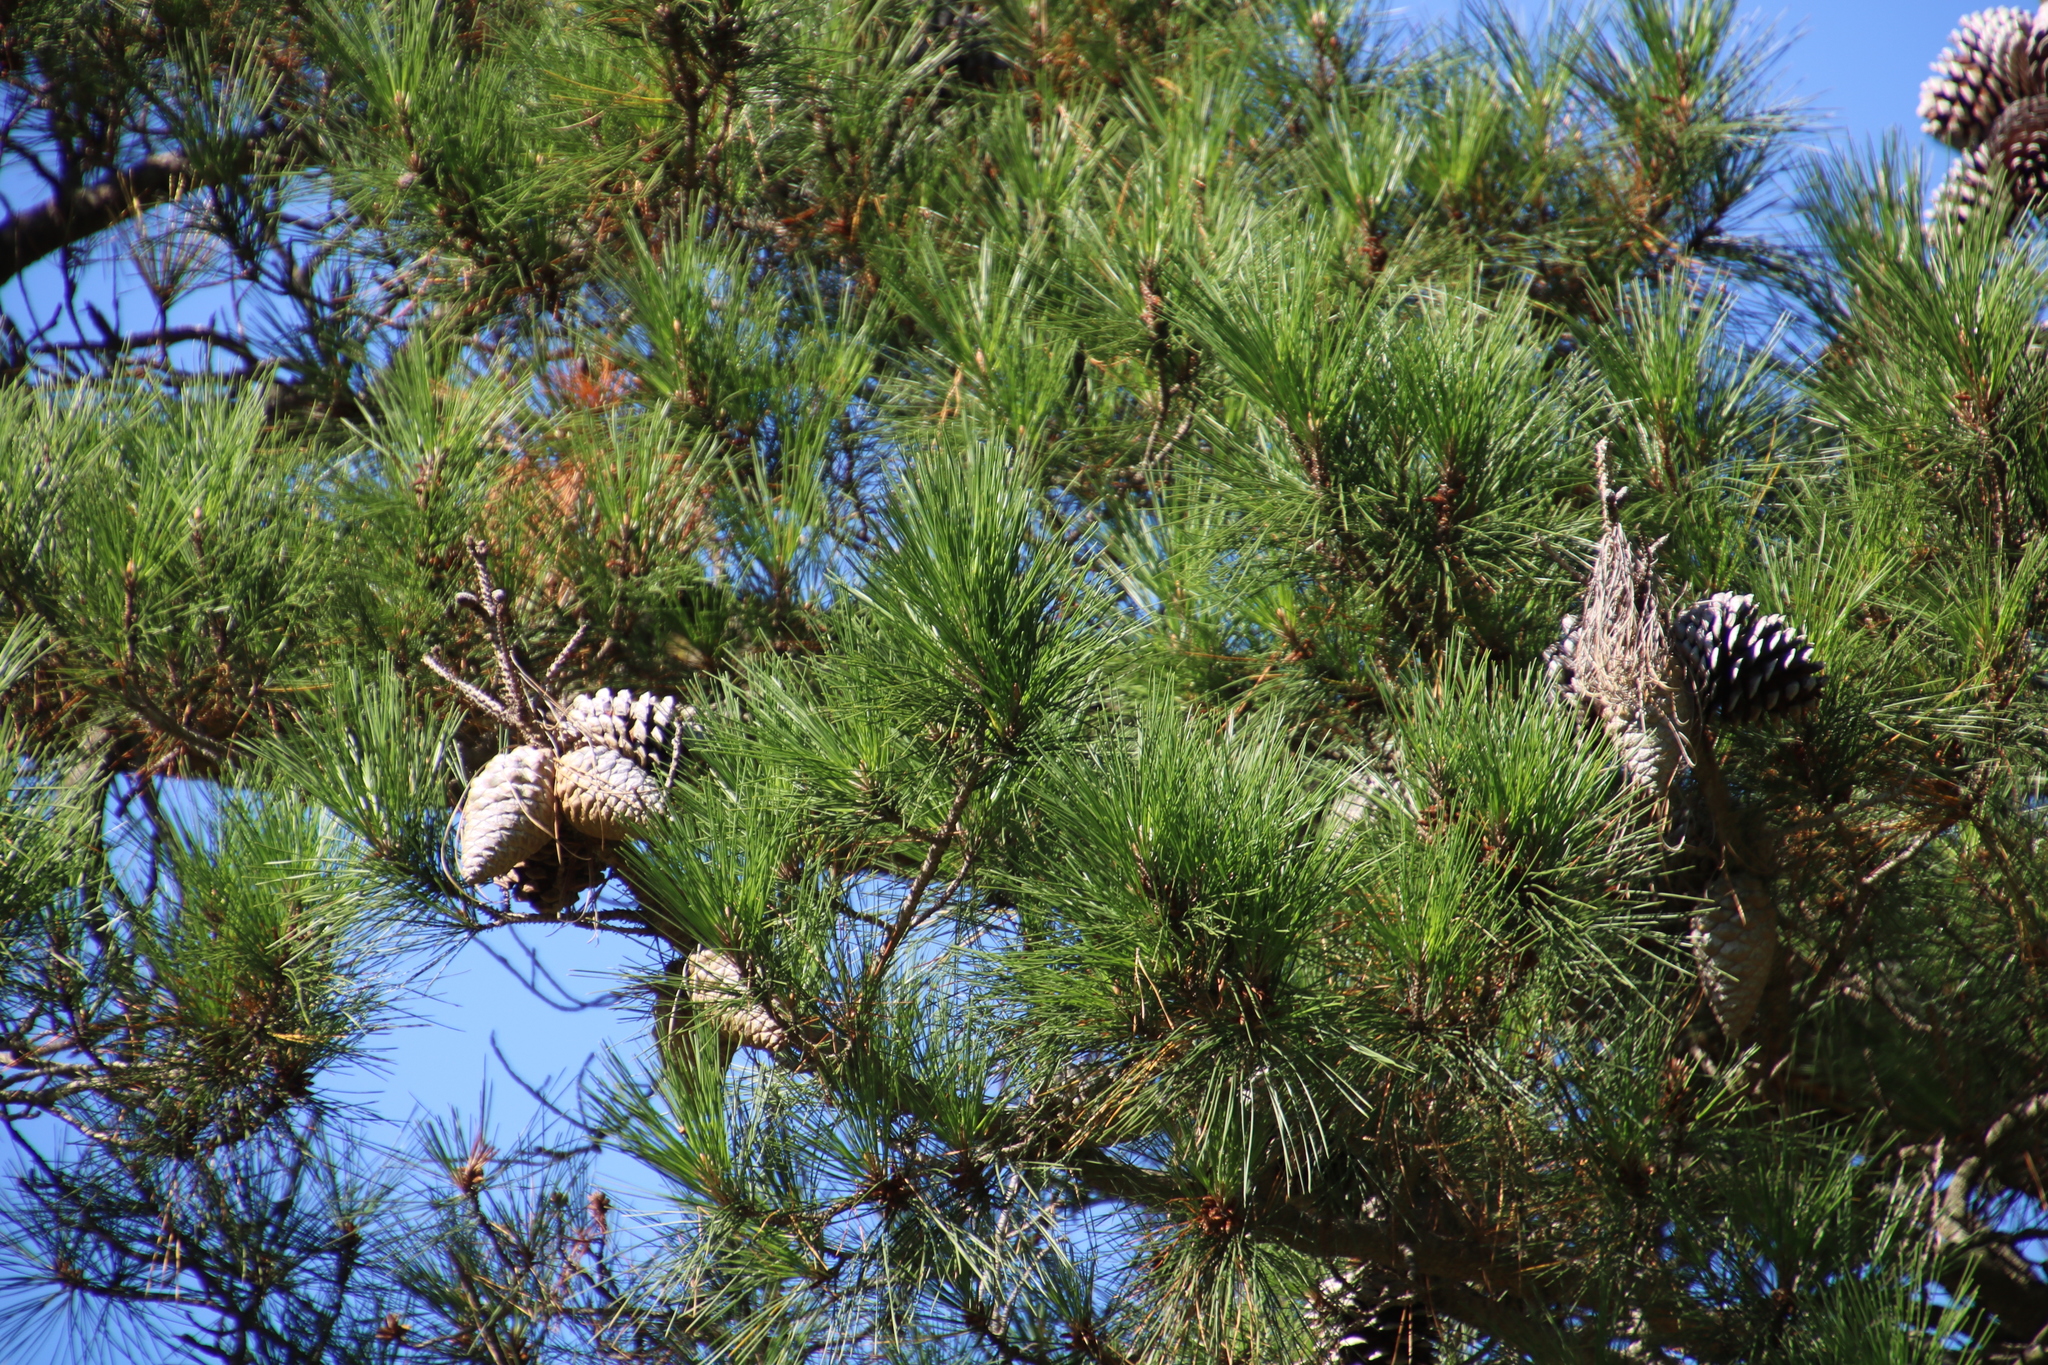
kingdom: Plantae
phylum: Tracheophyta
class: Pinopsida
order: Pinales
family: Pinaceae
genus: Pinus
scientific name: Pinus radiata
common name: Monterey pine
